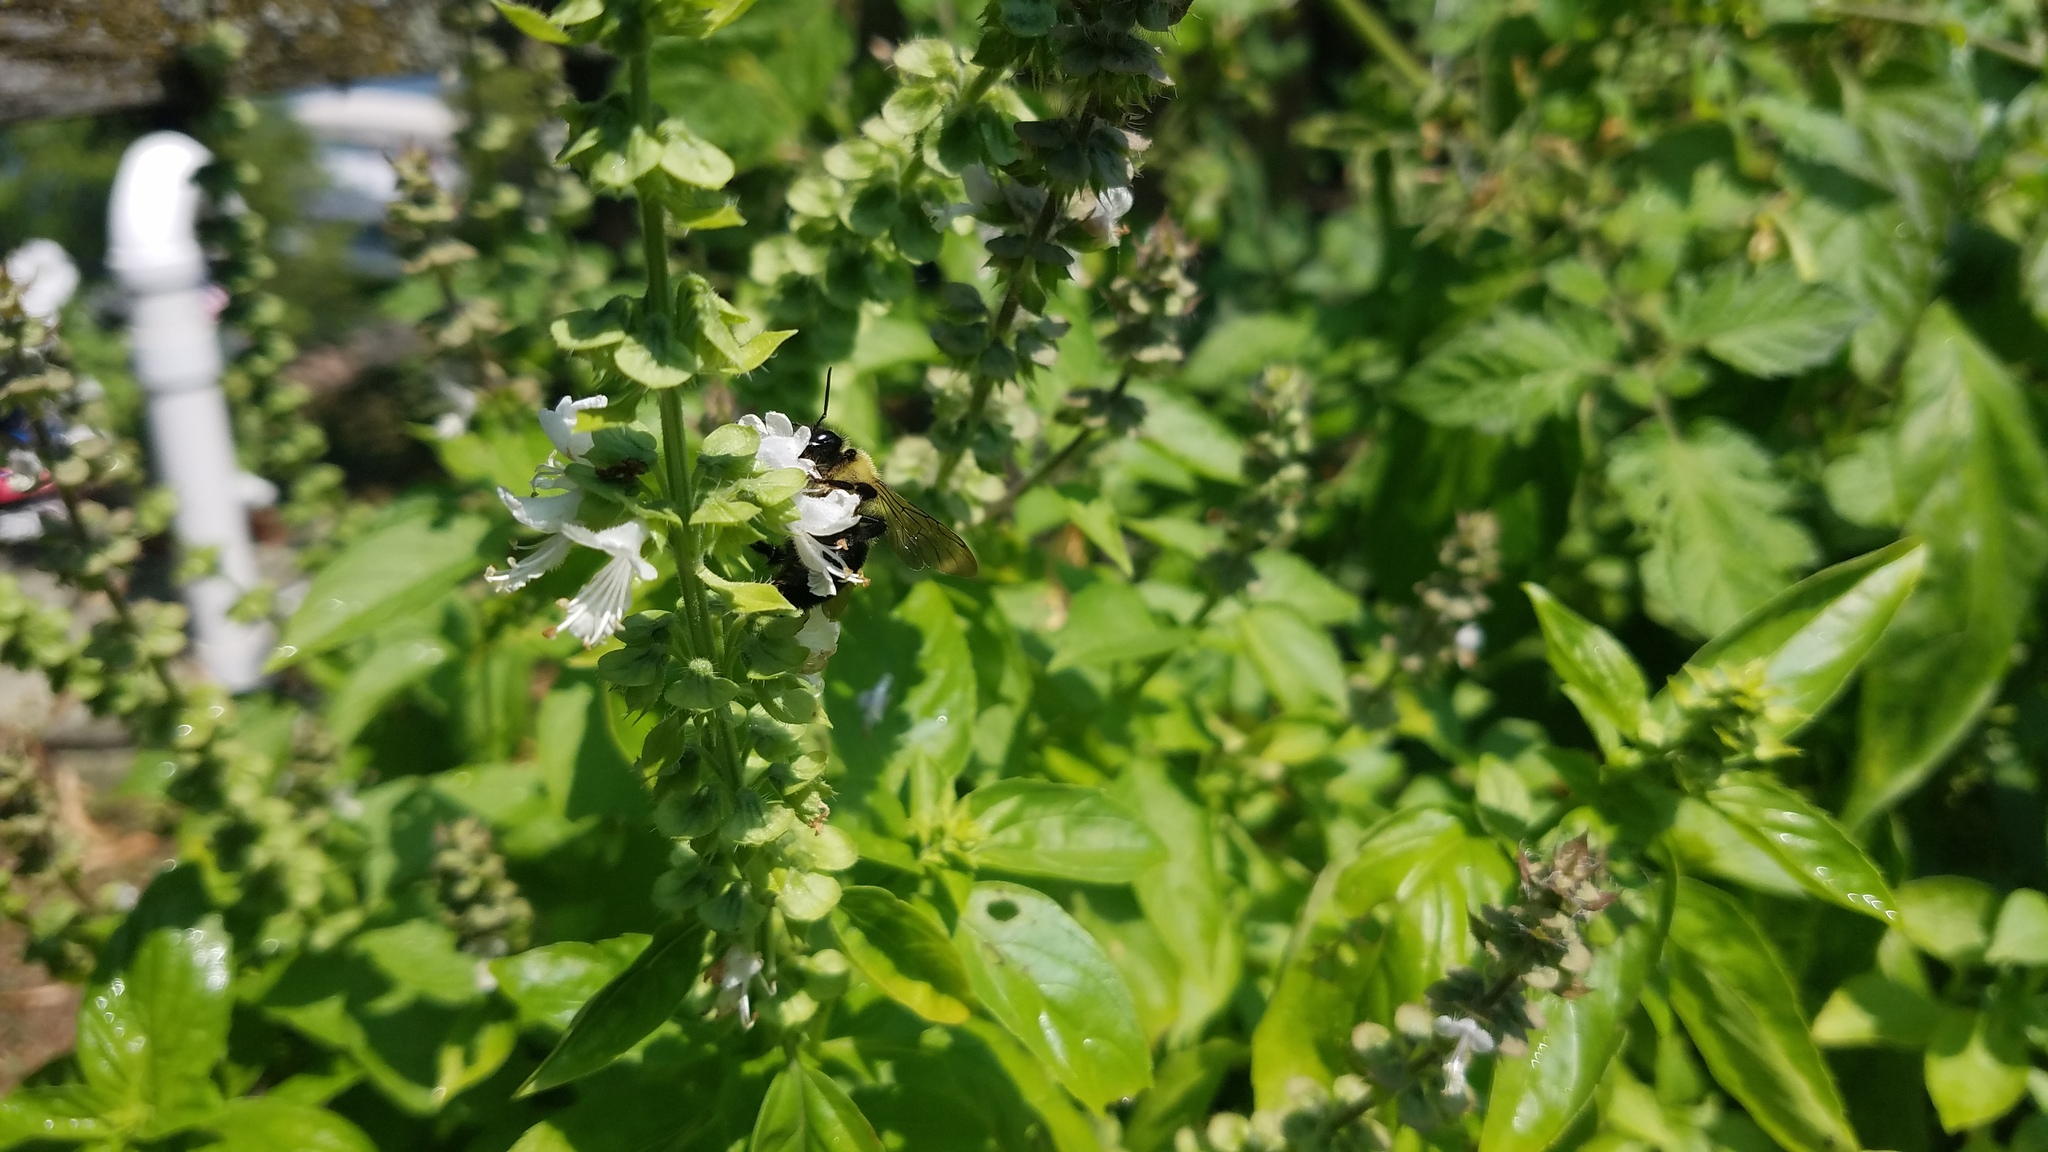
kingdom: Animalia
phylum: Arthropoda
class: Insecta
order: Hymenoptera
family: Apidae
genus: Xylocopa
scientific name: Xylocopa virginica
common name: Carpenter bee
